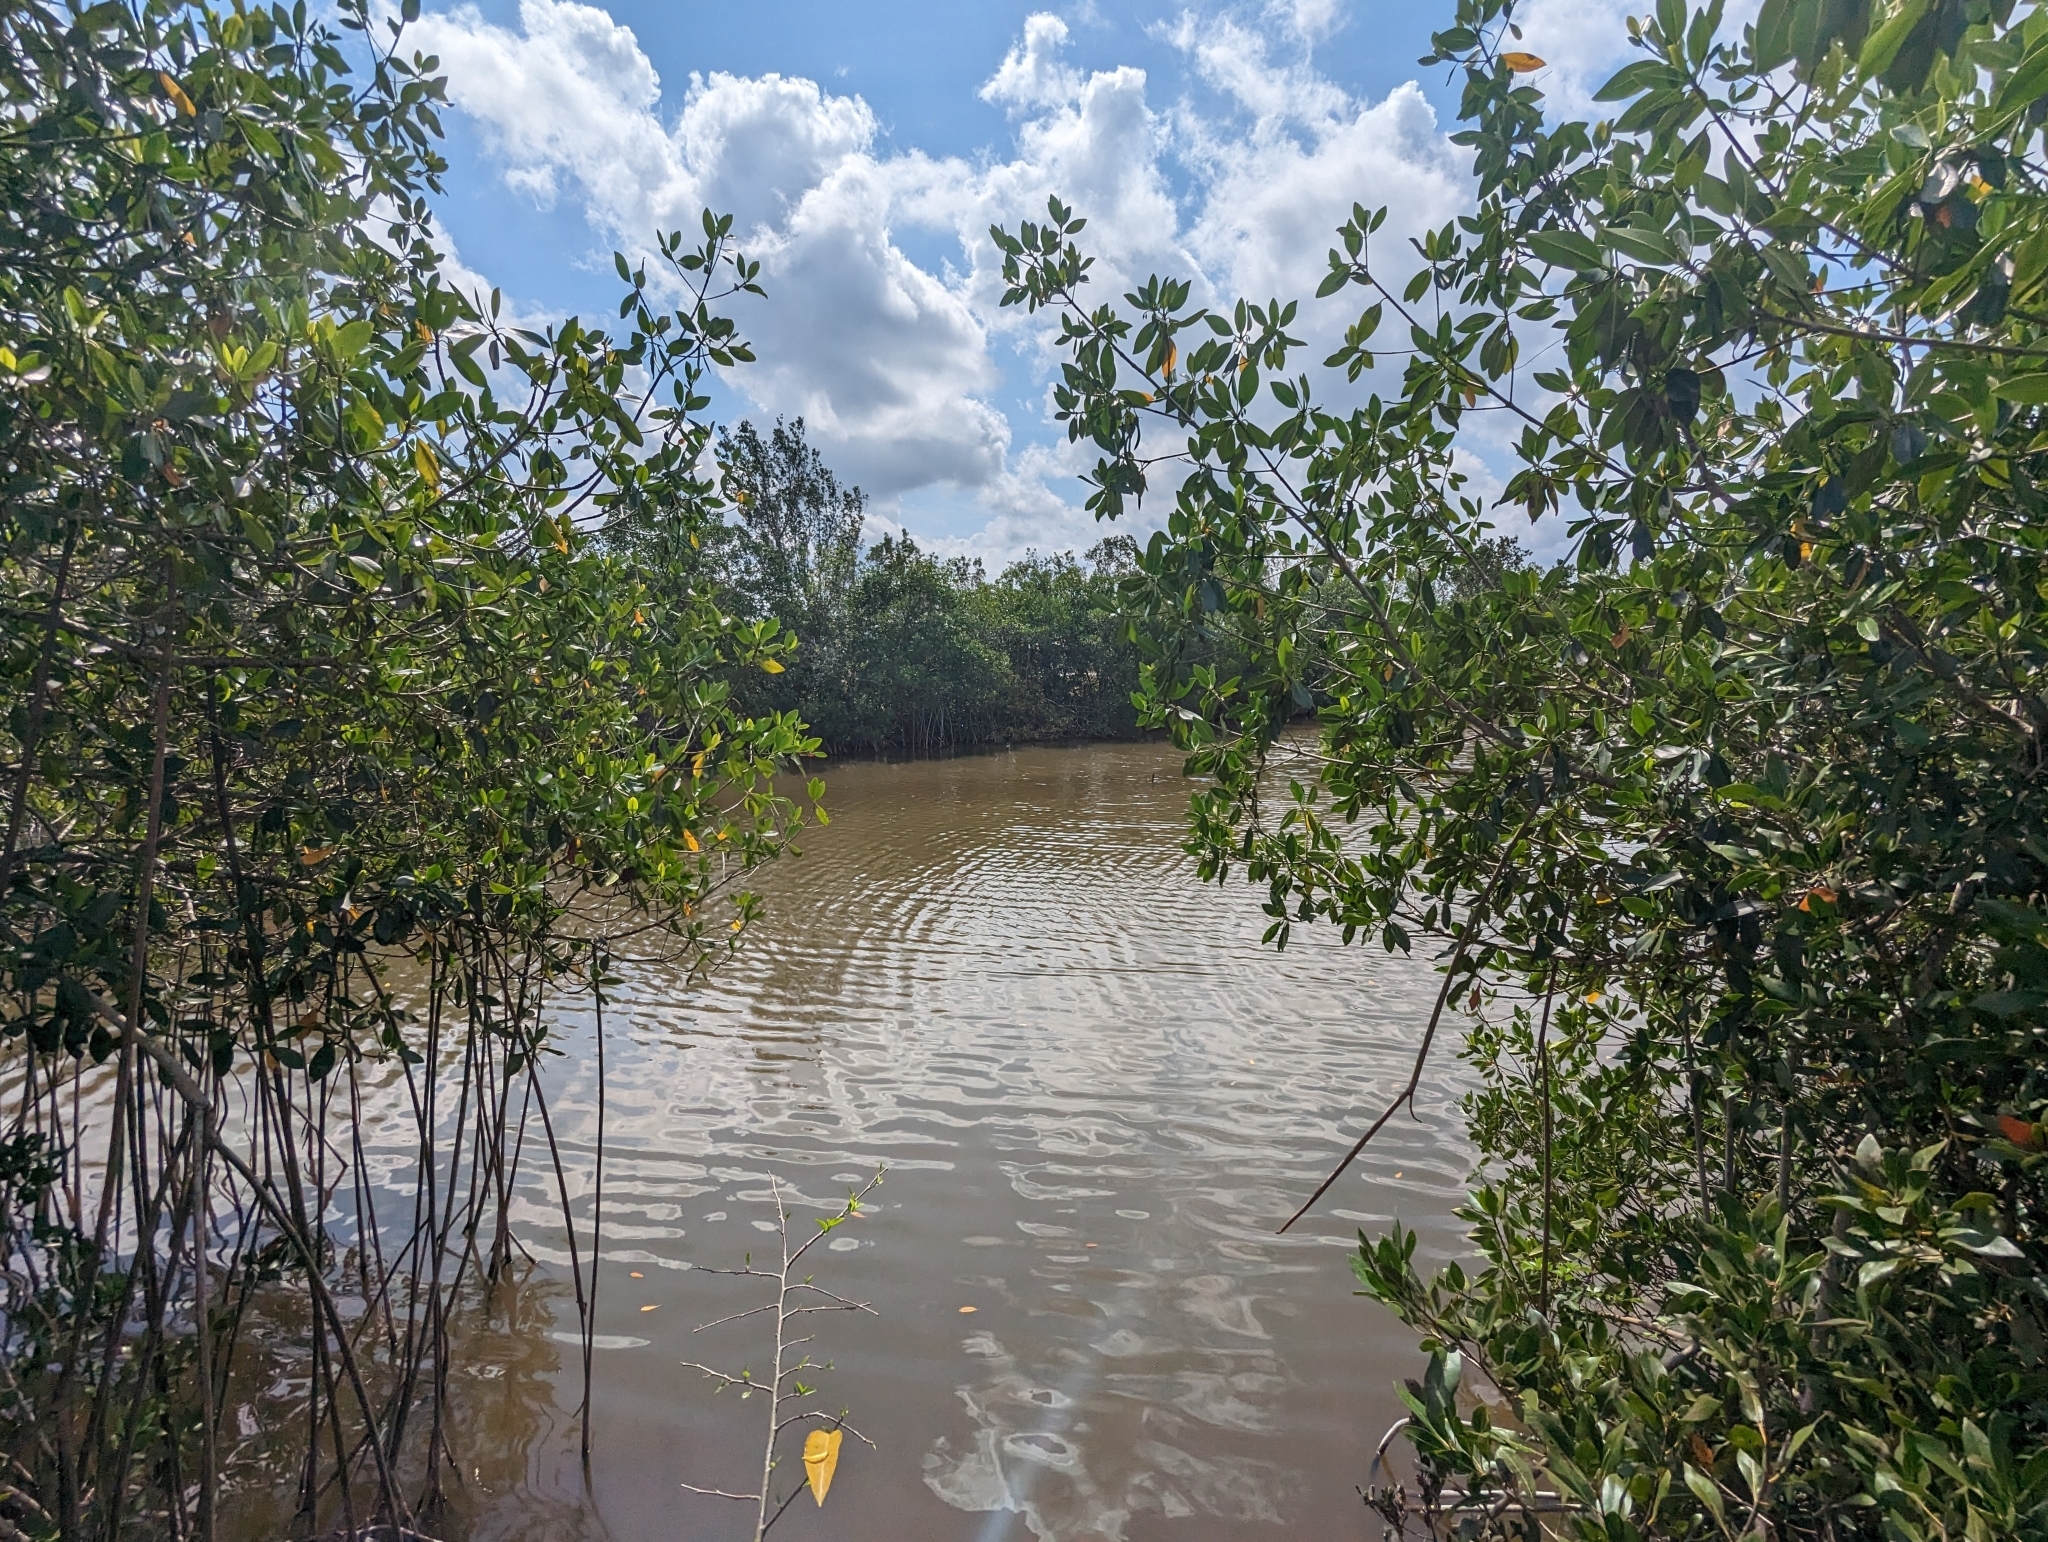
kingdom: Plantae
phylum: Tracheophyta
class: Magnoliopsida
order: Malpighiales
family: Rhizophoraceae
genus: Rhizophora
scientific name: Rhizophora mangle
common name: Red mangrove
